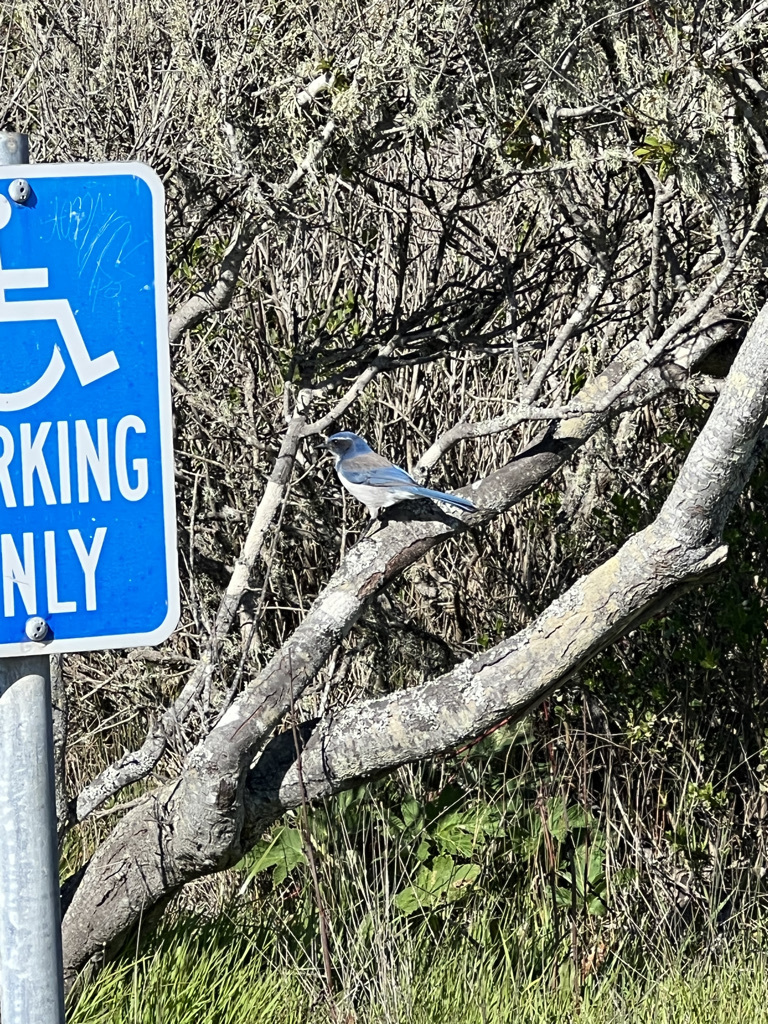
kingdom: Animalia
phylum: Chordata
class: Aves
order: Passeriformes
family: Corvidae
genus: Aphelocoma
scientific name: Aphelocoma californica
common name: California scrub-jay
